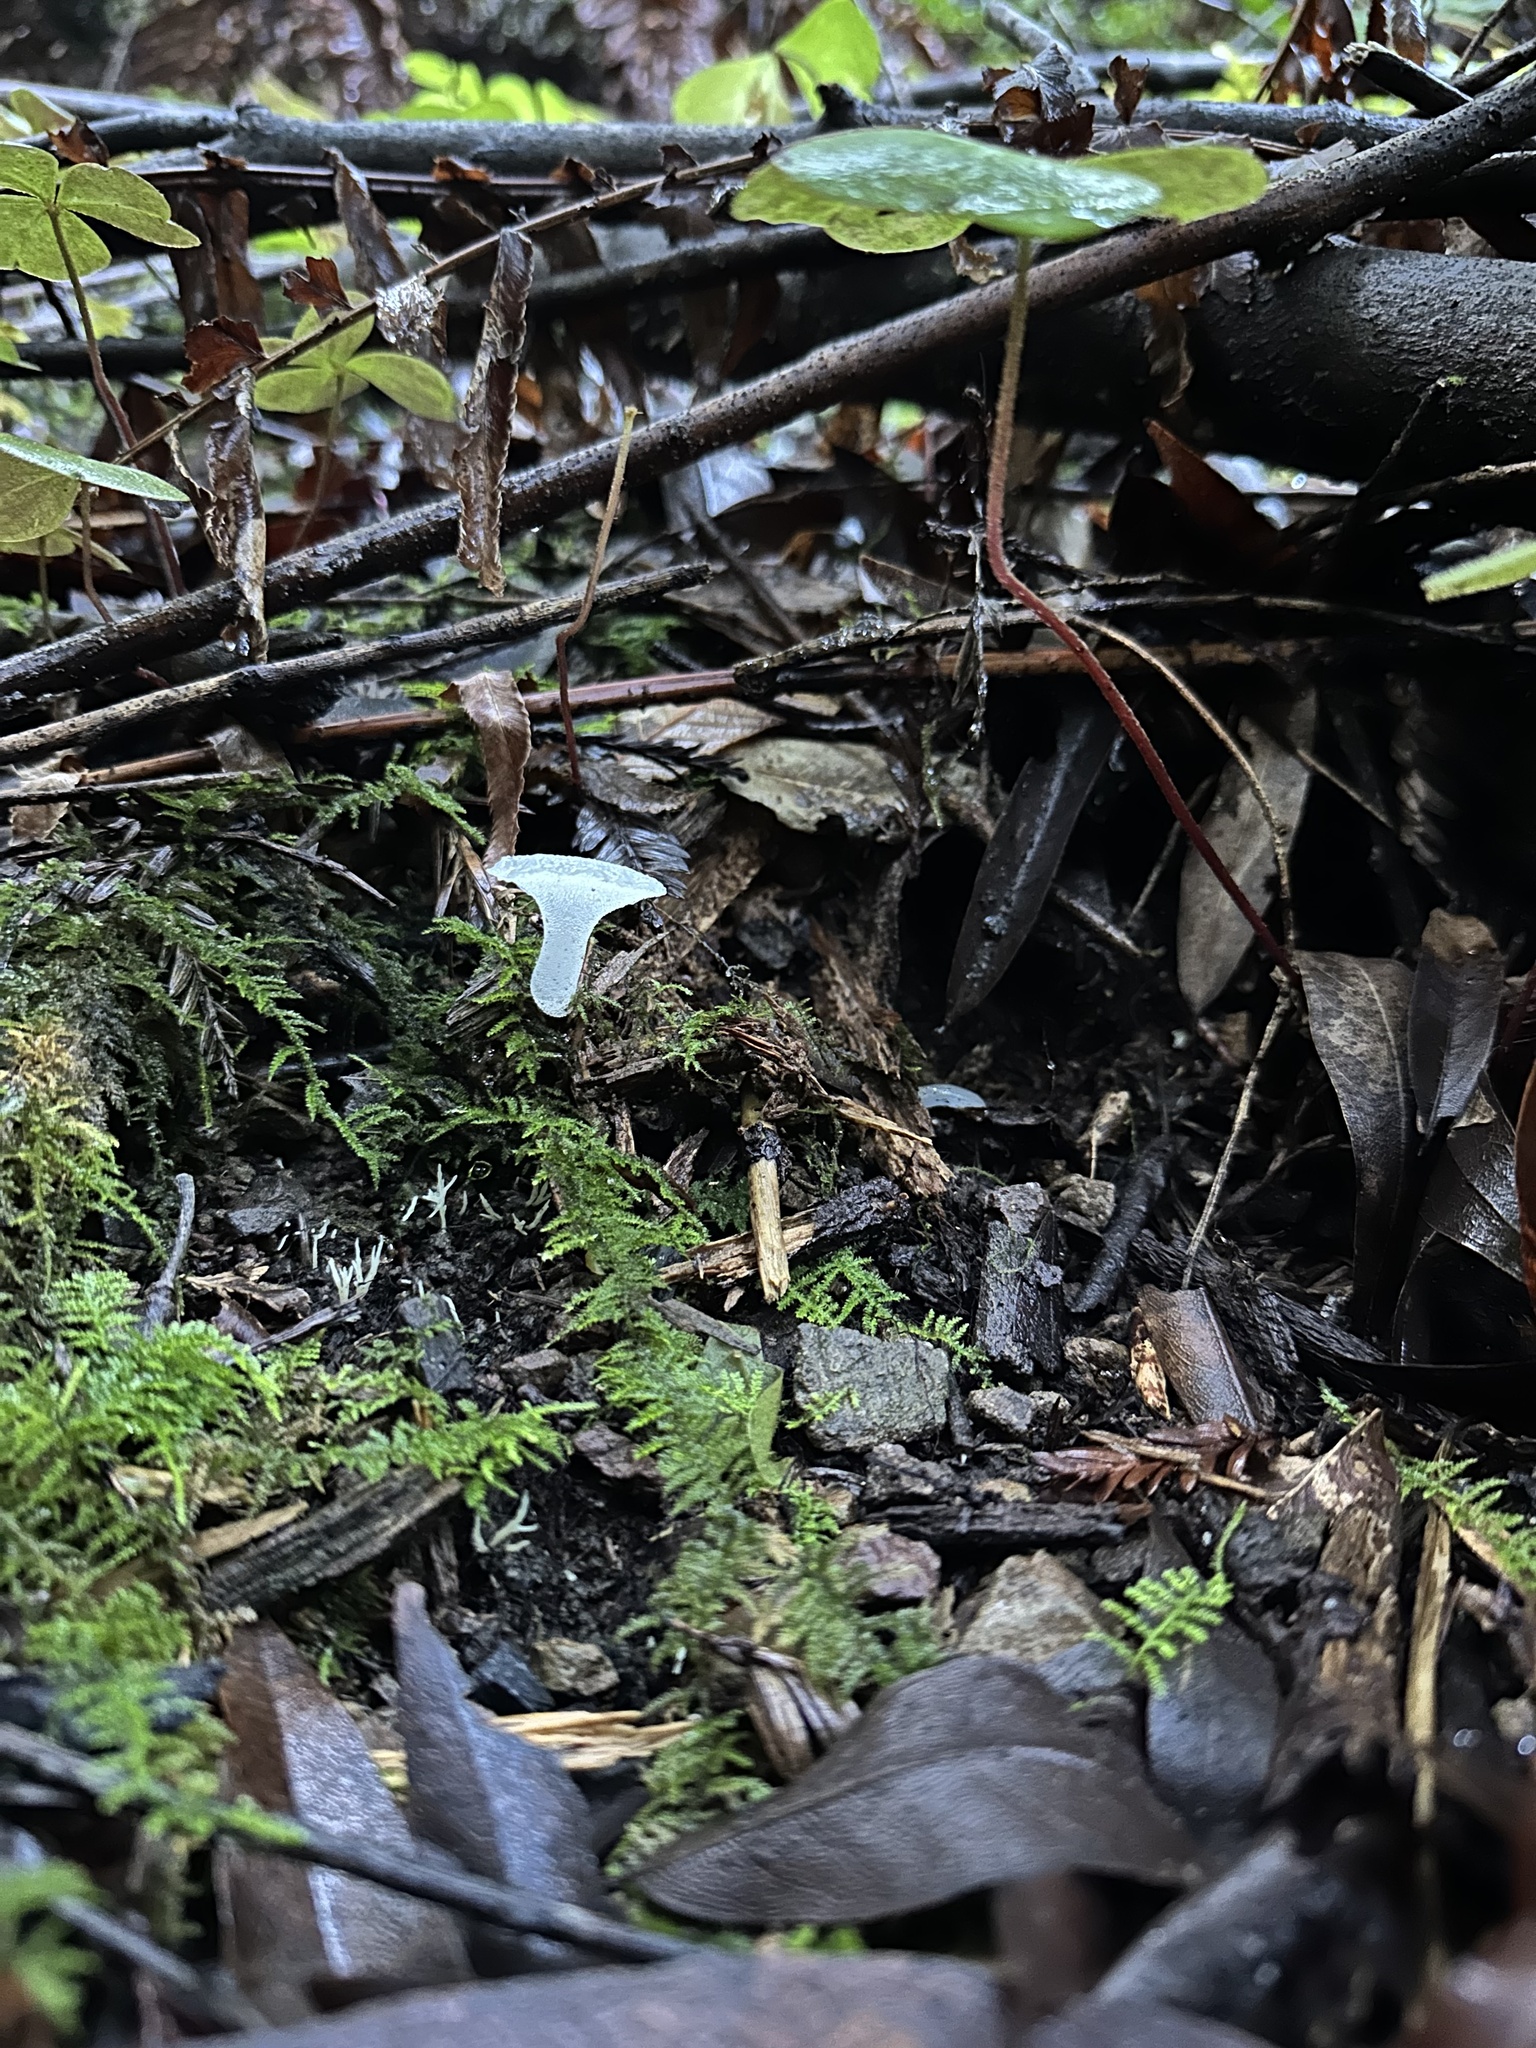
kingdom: Fungi
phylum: Basidiomycota
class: Agaricomycetes
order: Auriculariales
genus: Pseudohydnum
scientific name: Pseudohydnum gelatinosum
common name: Jelly tongue
